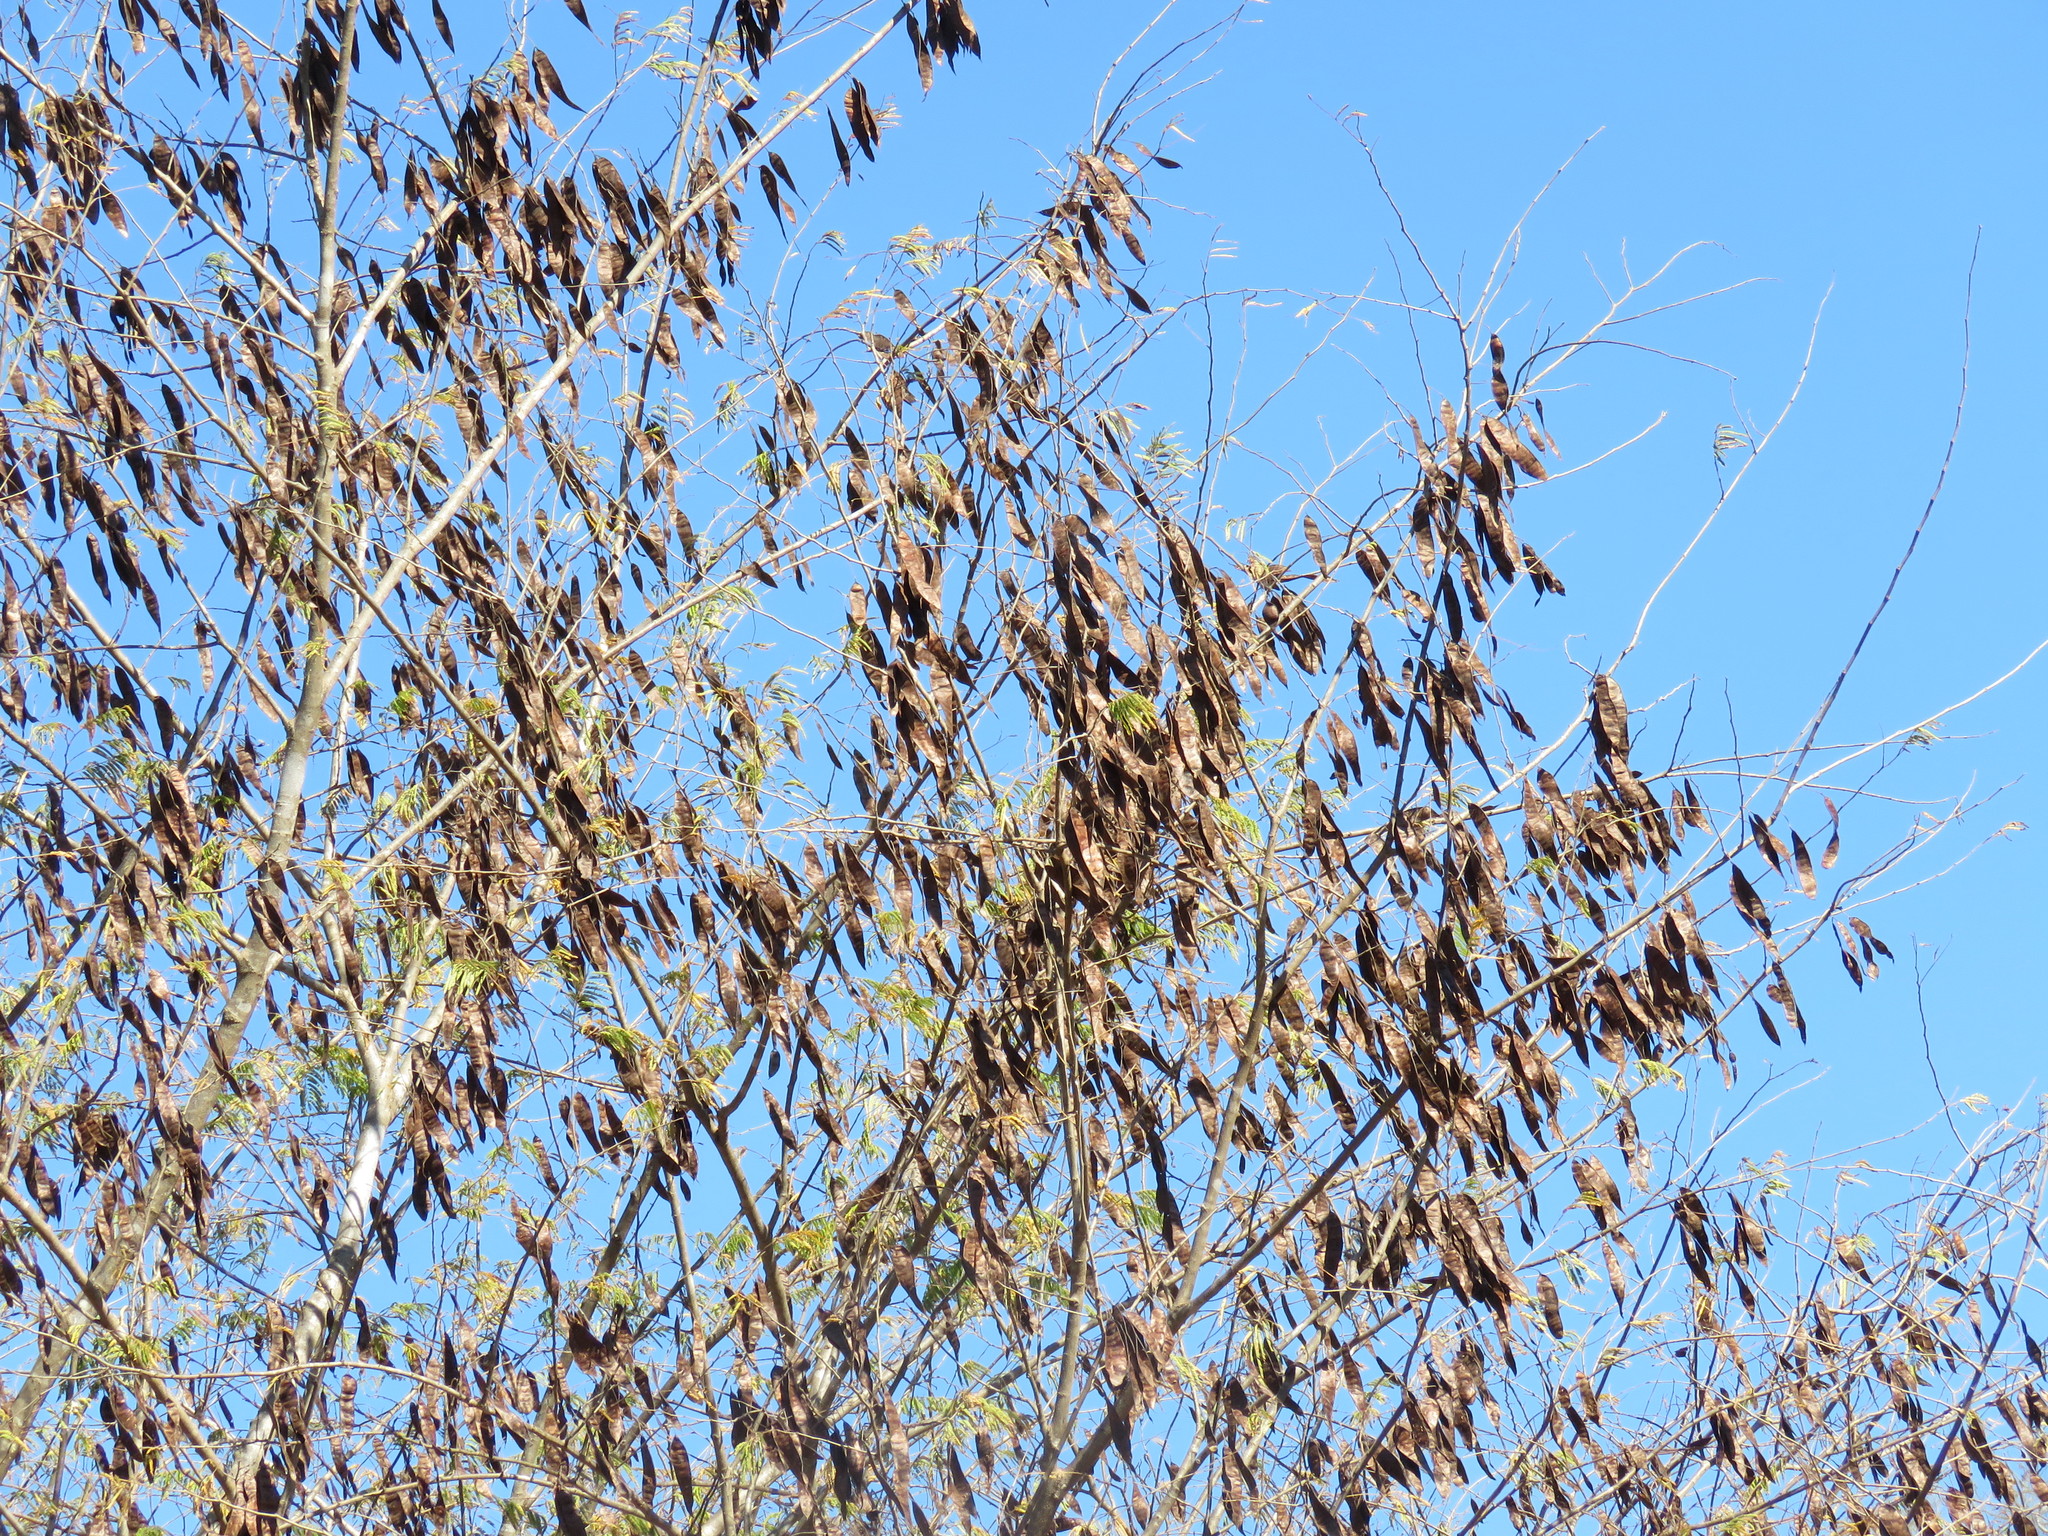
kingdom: Plantae
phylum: Tracheophyta
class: Magnoliopsida
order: Fabales
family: Fabaceae
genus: Lysiloma
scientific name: Lysiloma divaricatum
